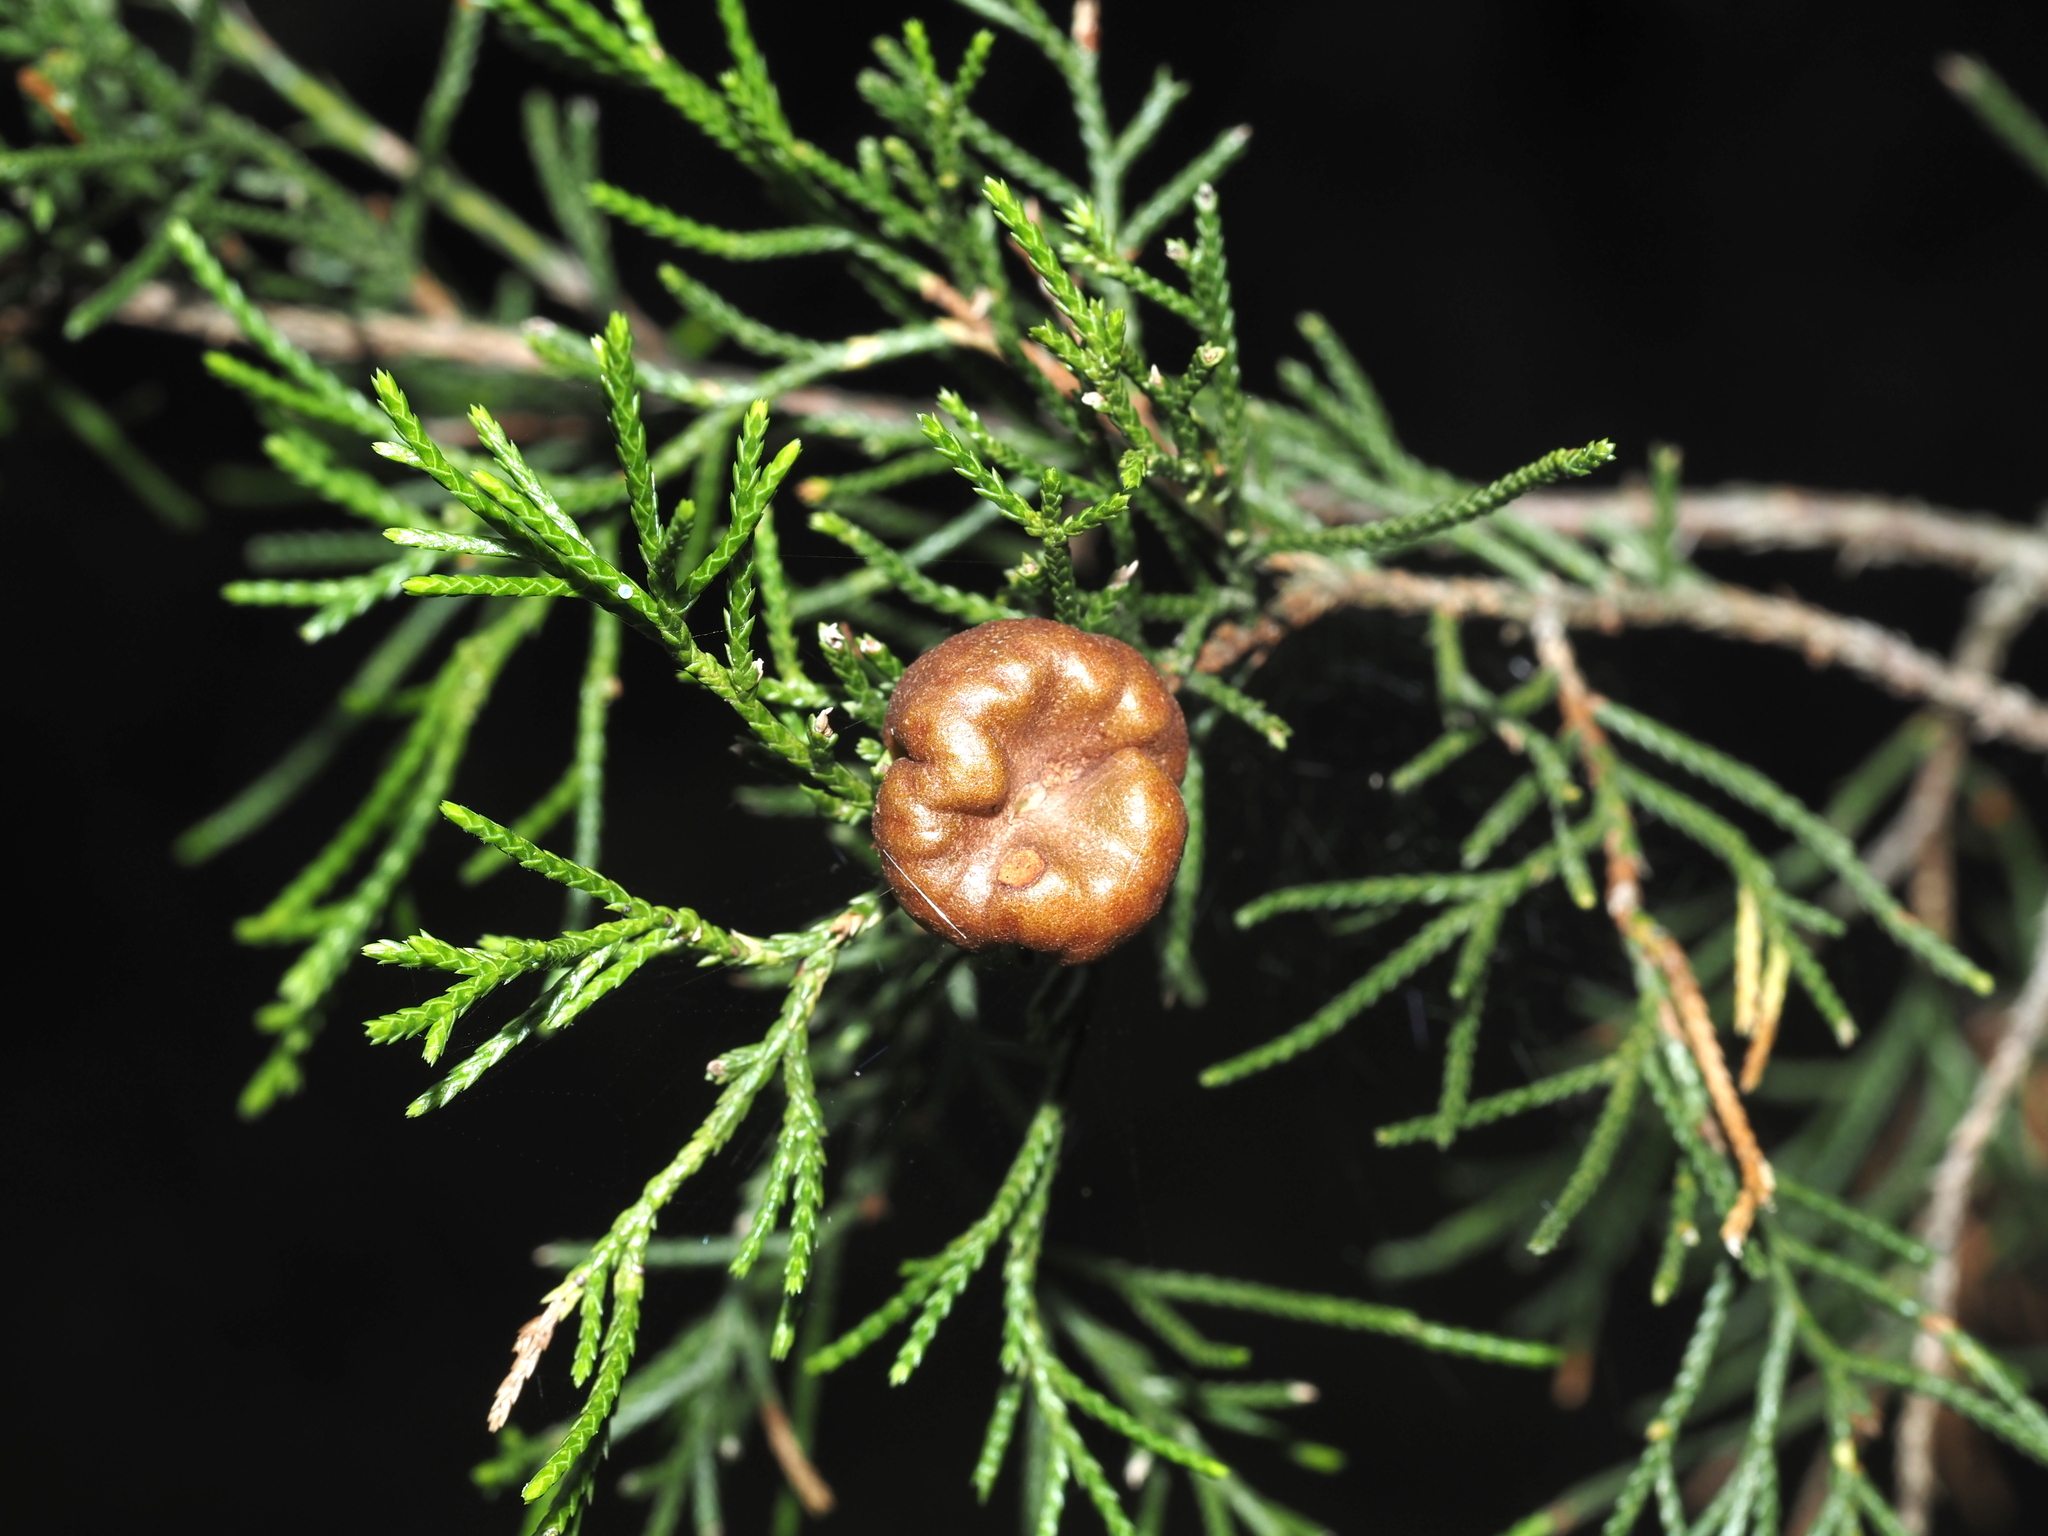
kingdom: Fungi
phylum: Basidiomycota
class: Pucciniomycetes
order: Pucciniales
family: Gymnosporangiaceae
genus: Gymnosporangium
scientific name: Gymnosporangium juniperi-virginianae
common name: Juniper-apple rust
